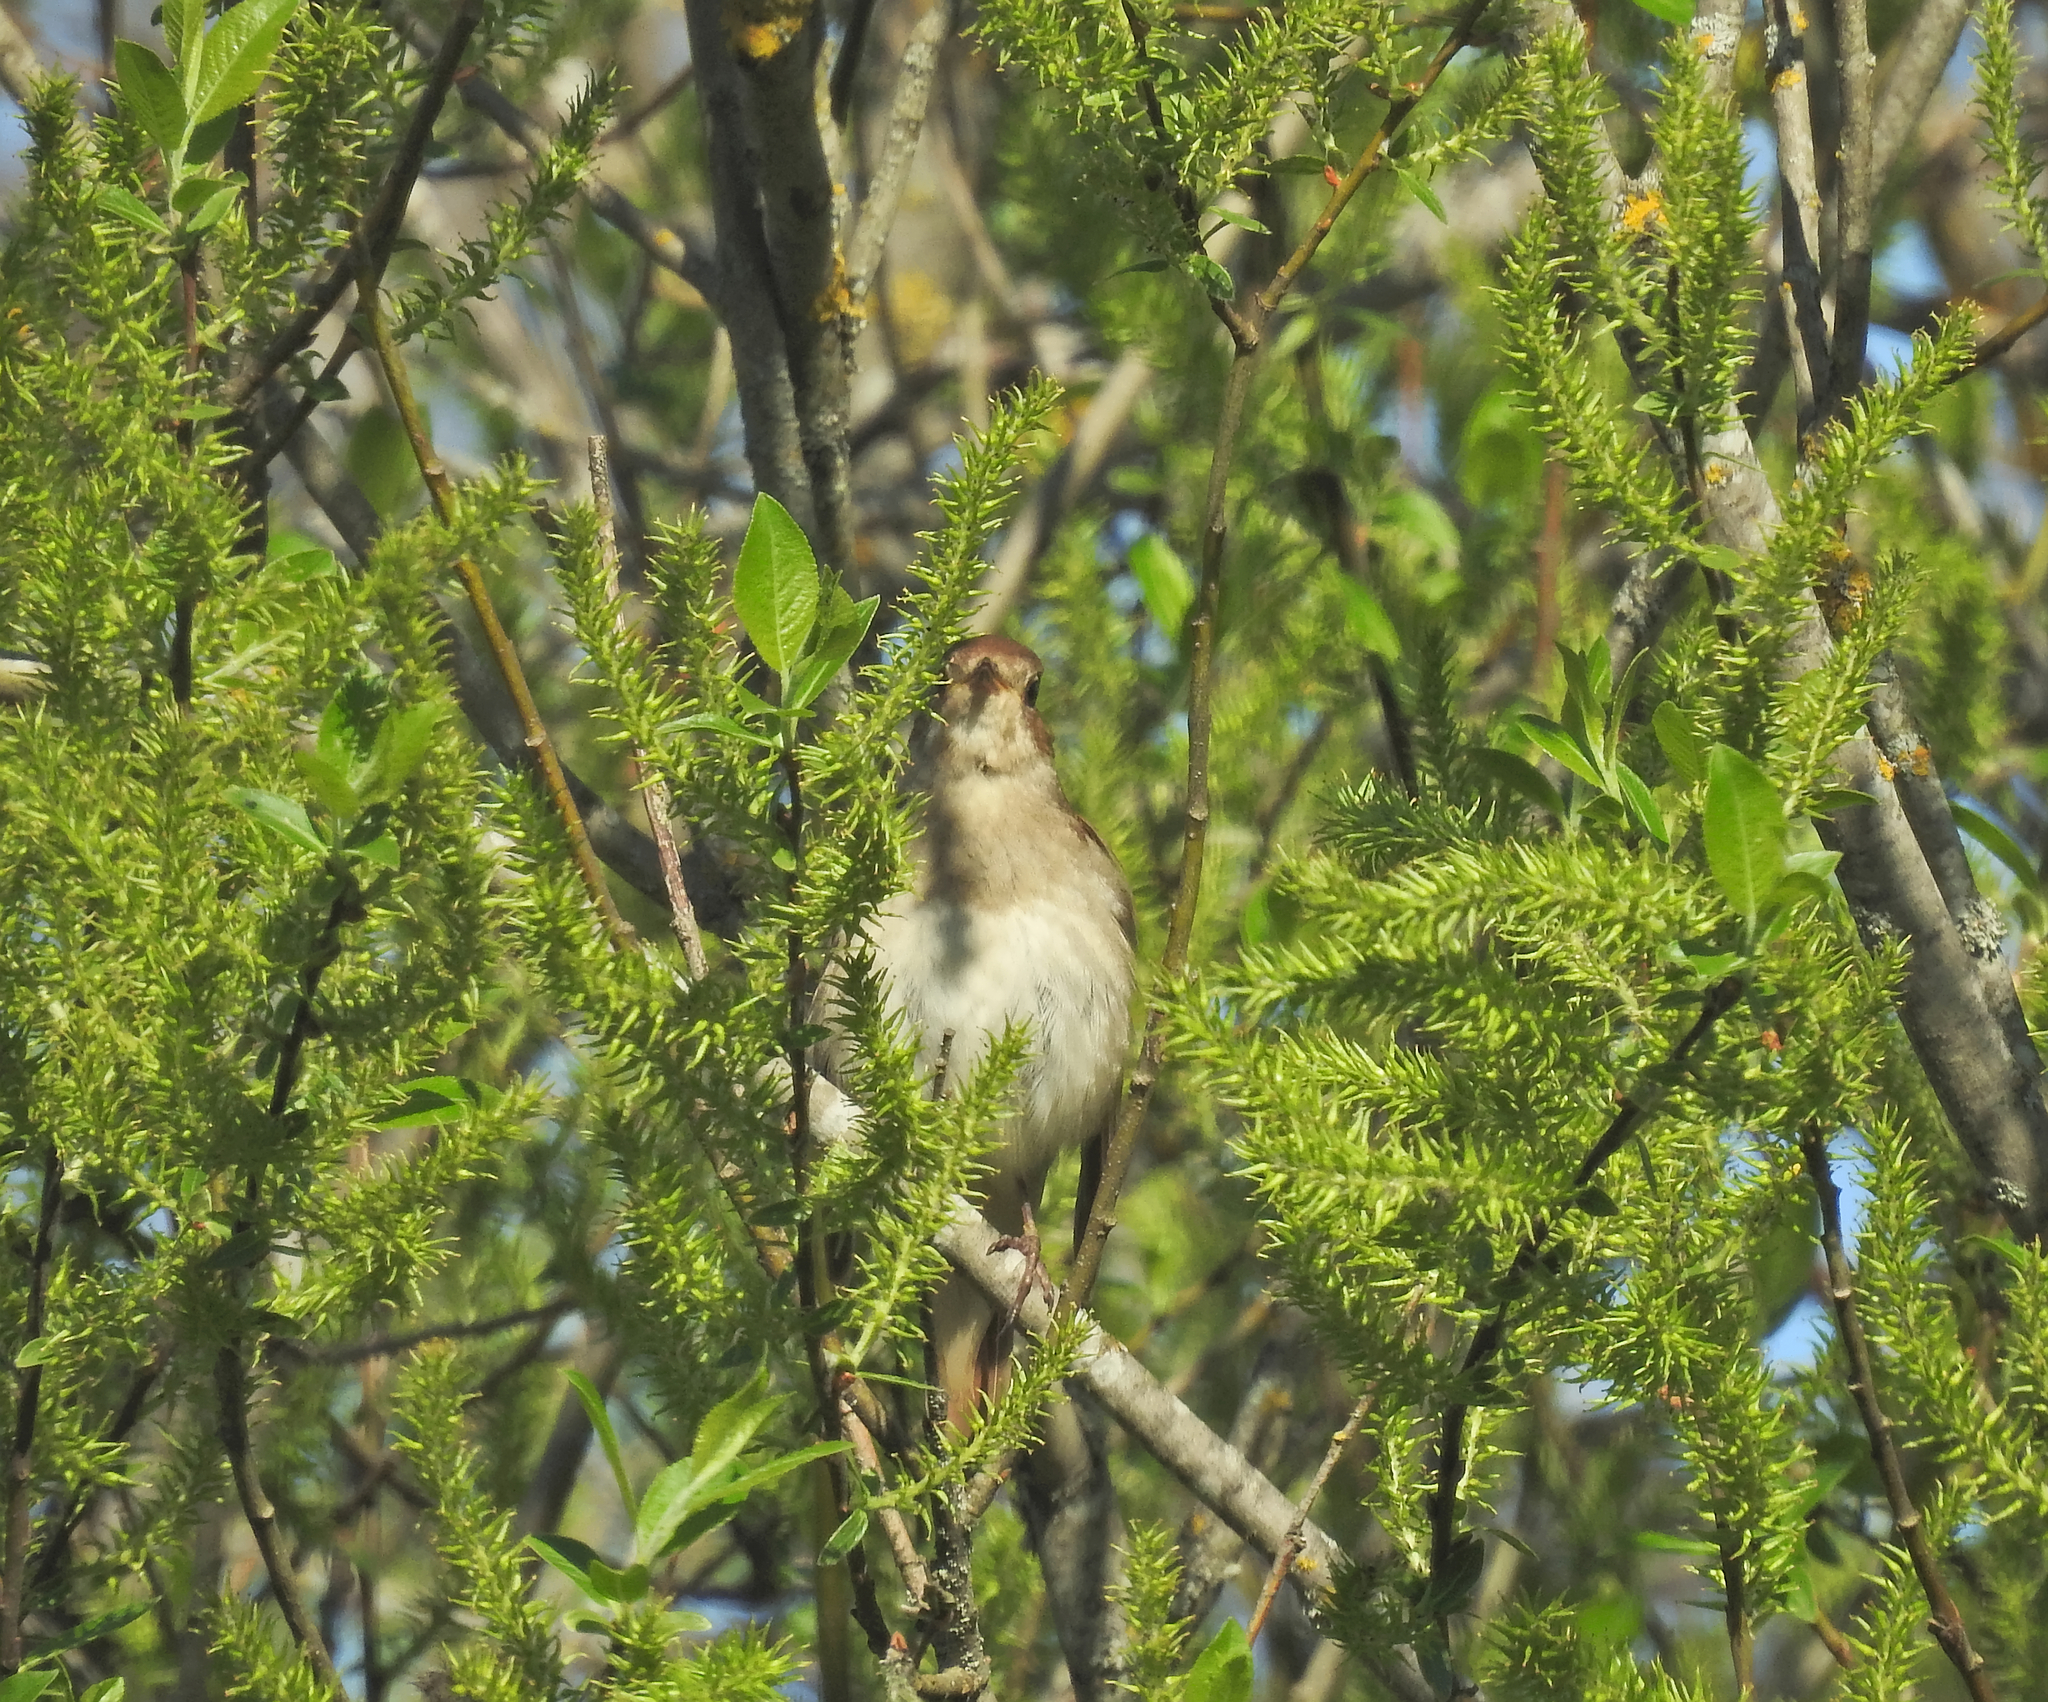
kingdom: Animalia
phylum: Chordata
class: Aves
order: Passeriformes
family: Muscicapidae
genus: Luscinia
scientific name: Luscinia luscinia
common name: Thrush nightingale
